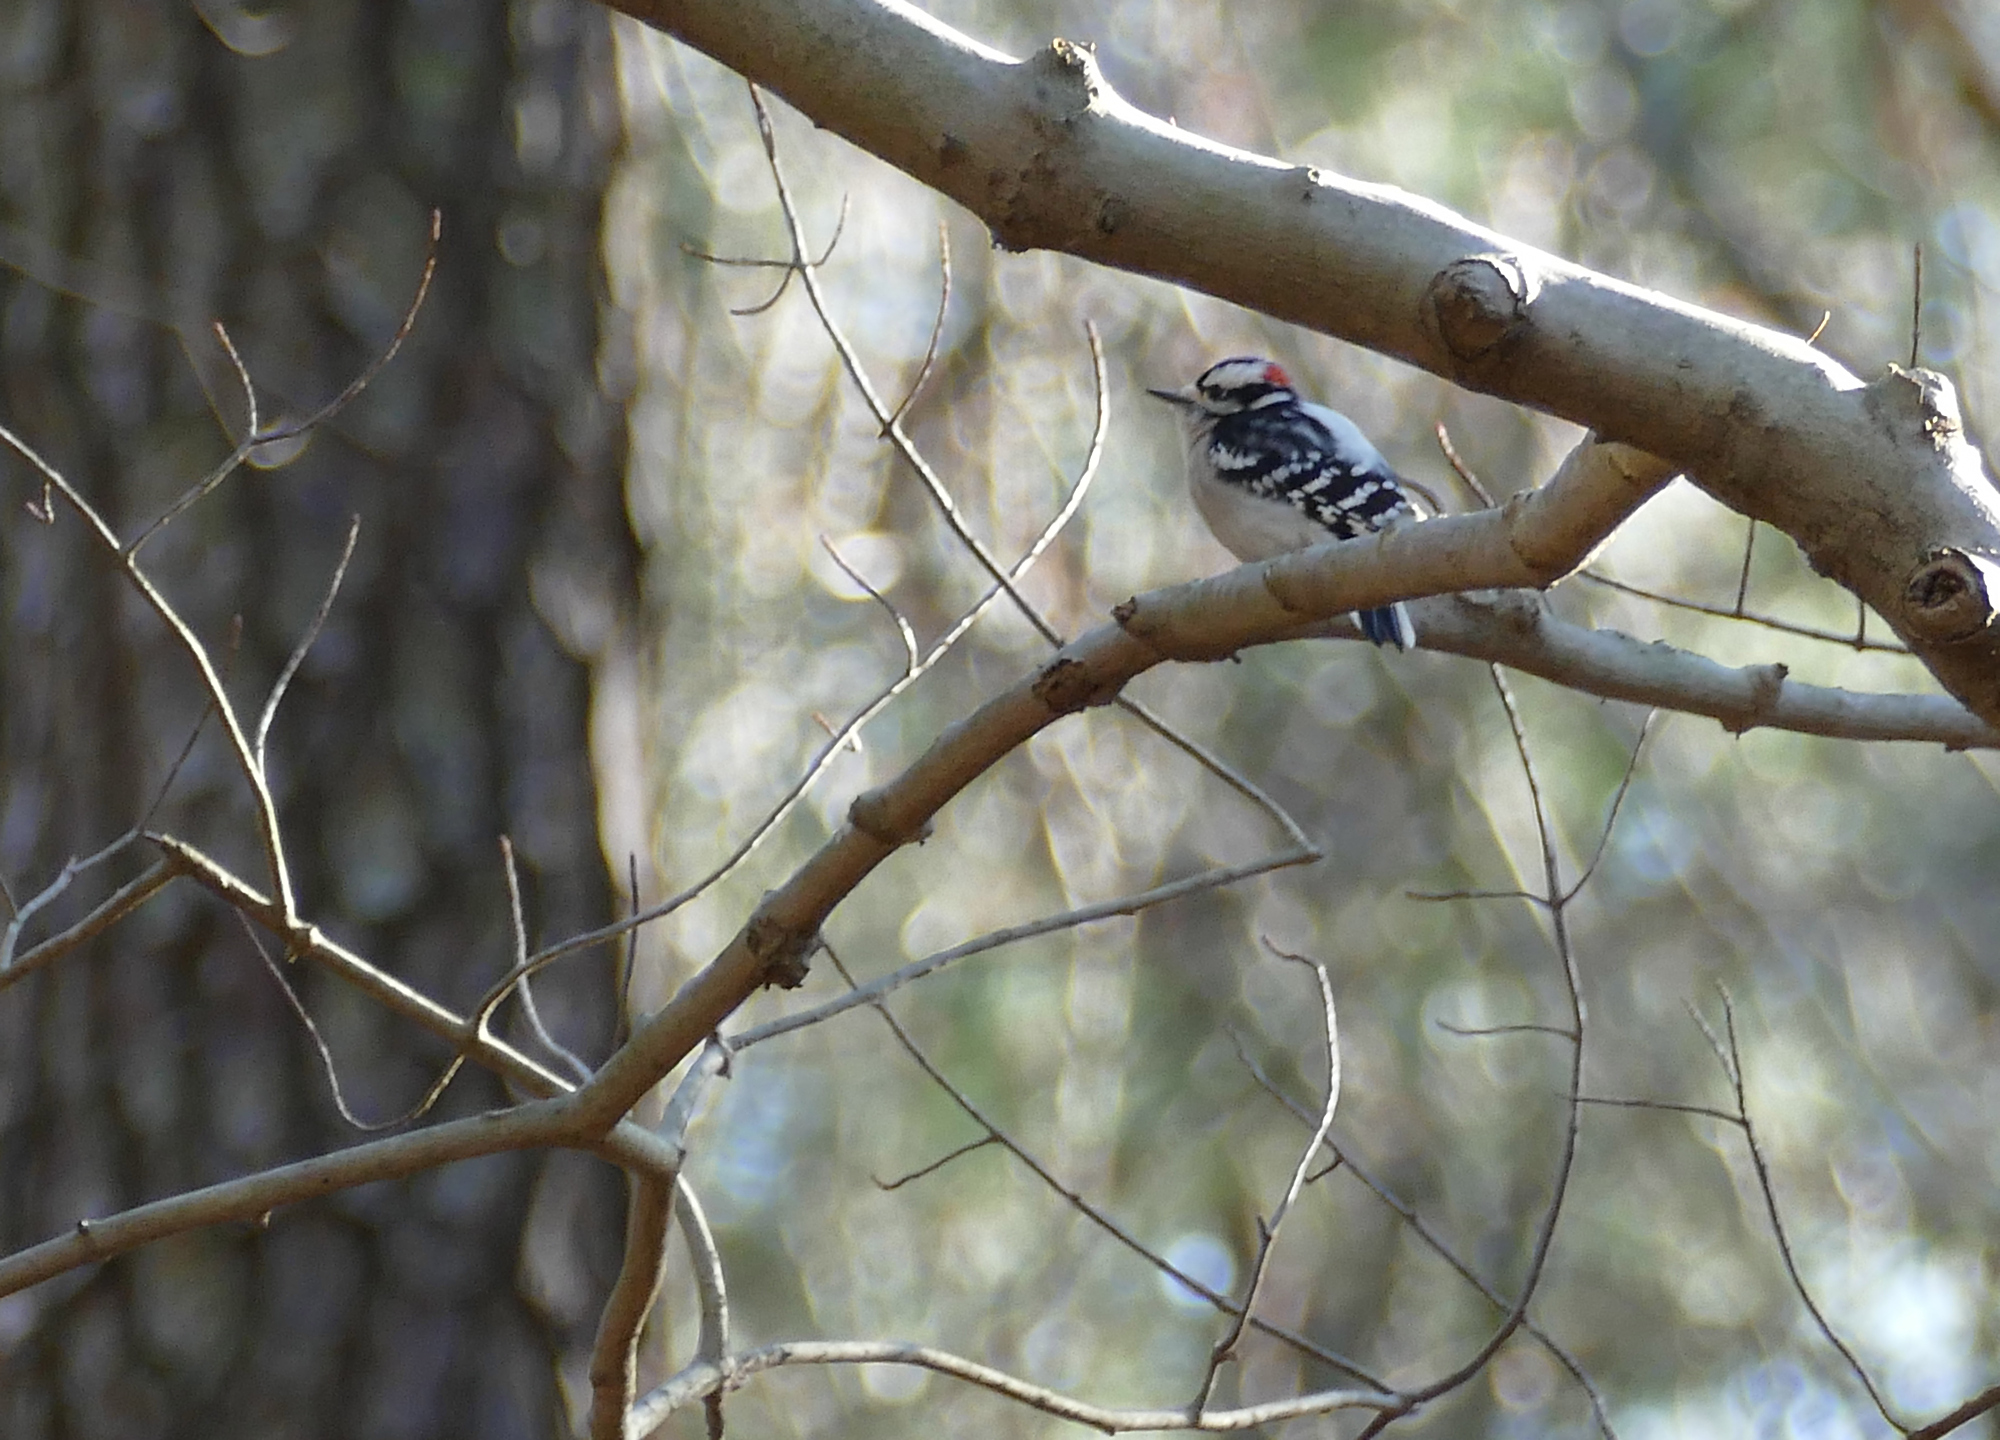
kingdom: Animalia
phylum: Chordata
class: Aves
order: Piciformes
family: Picidae
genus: Dryobates
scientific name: Dryobates pubescens
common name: Downy woodpecker
